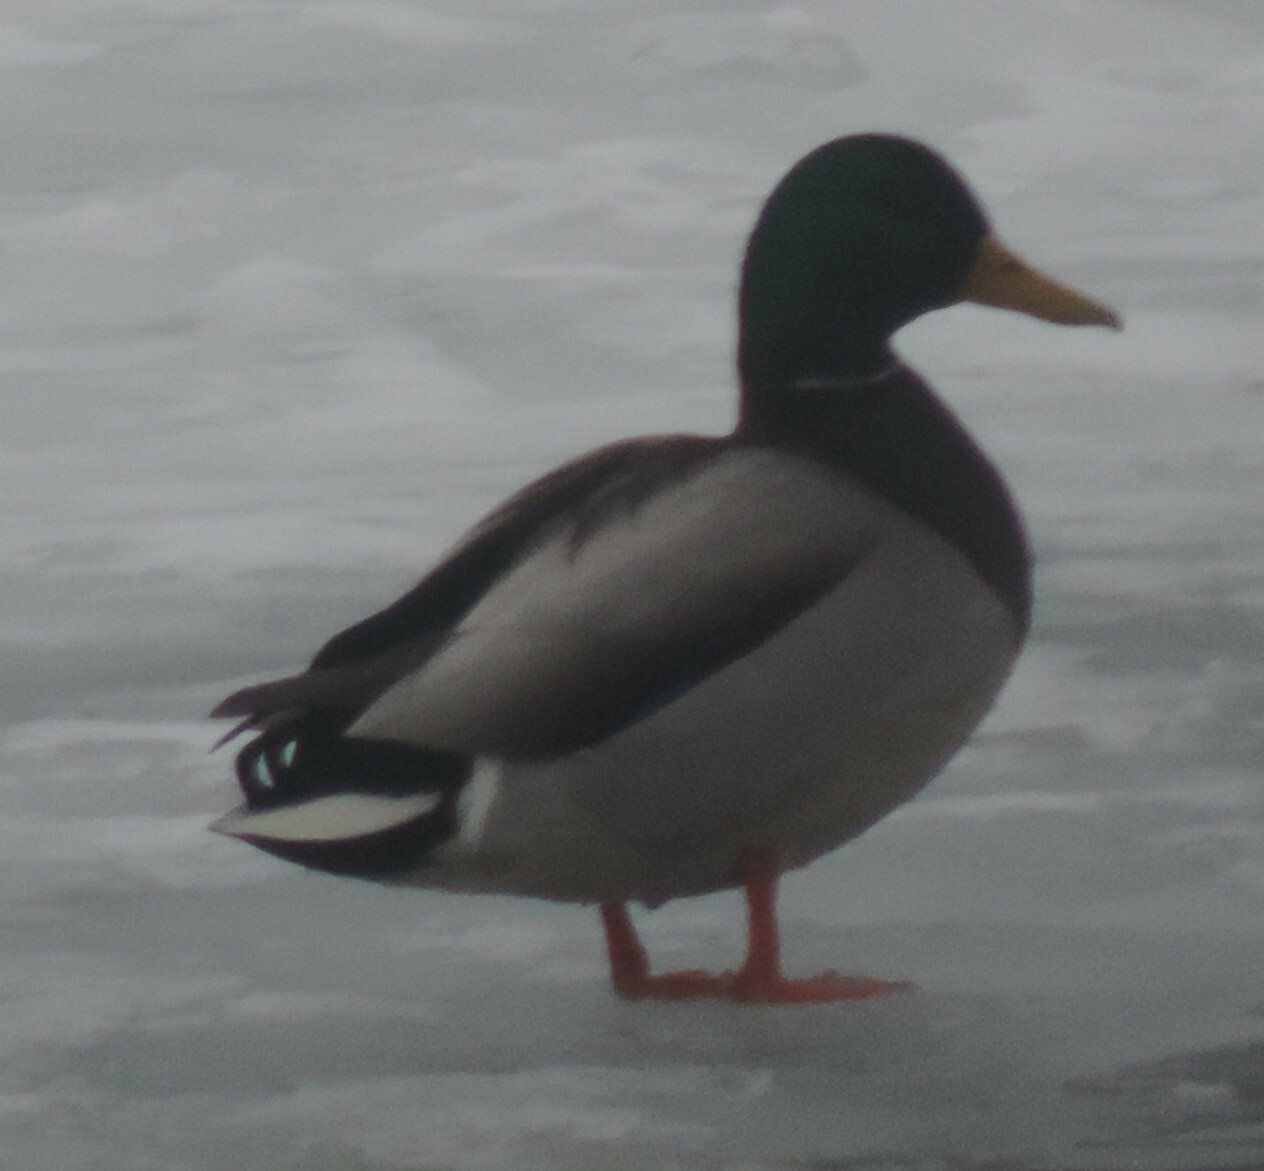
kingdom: Animalia
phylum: Chordata
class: Aves
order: Anseriformes
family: Anatidae
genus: Anas
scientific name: Anas platyrhynchos
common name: Mallard
